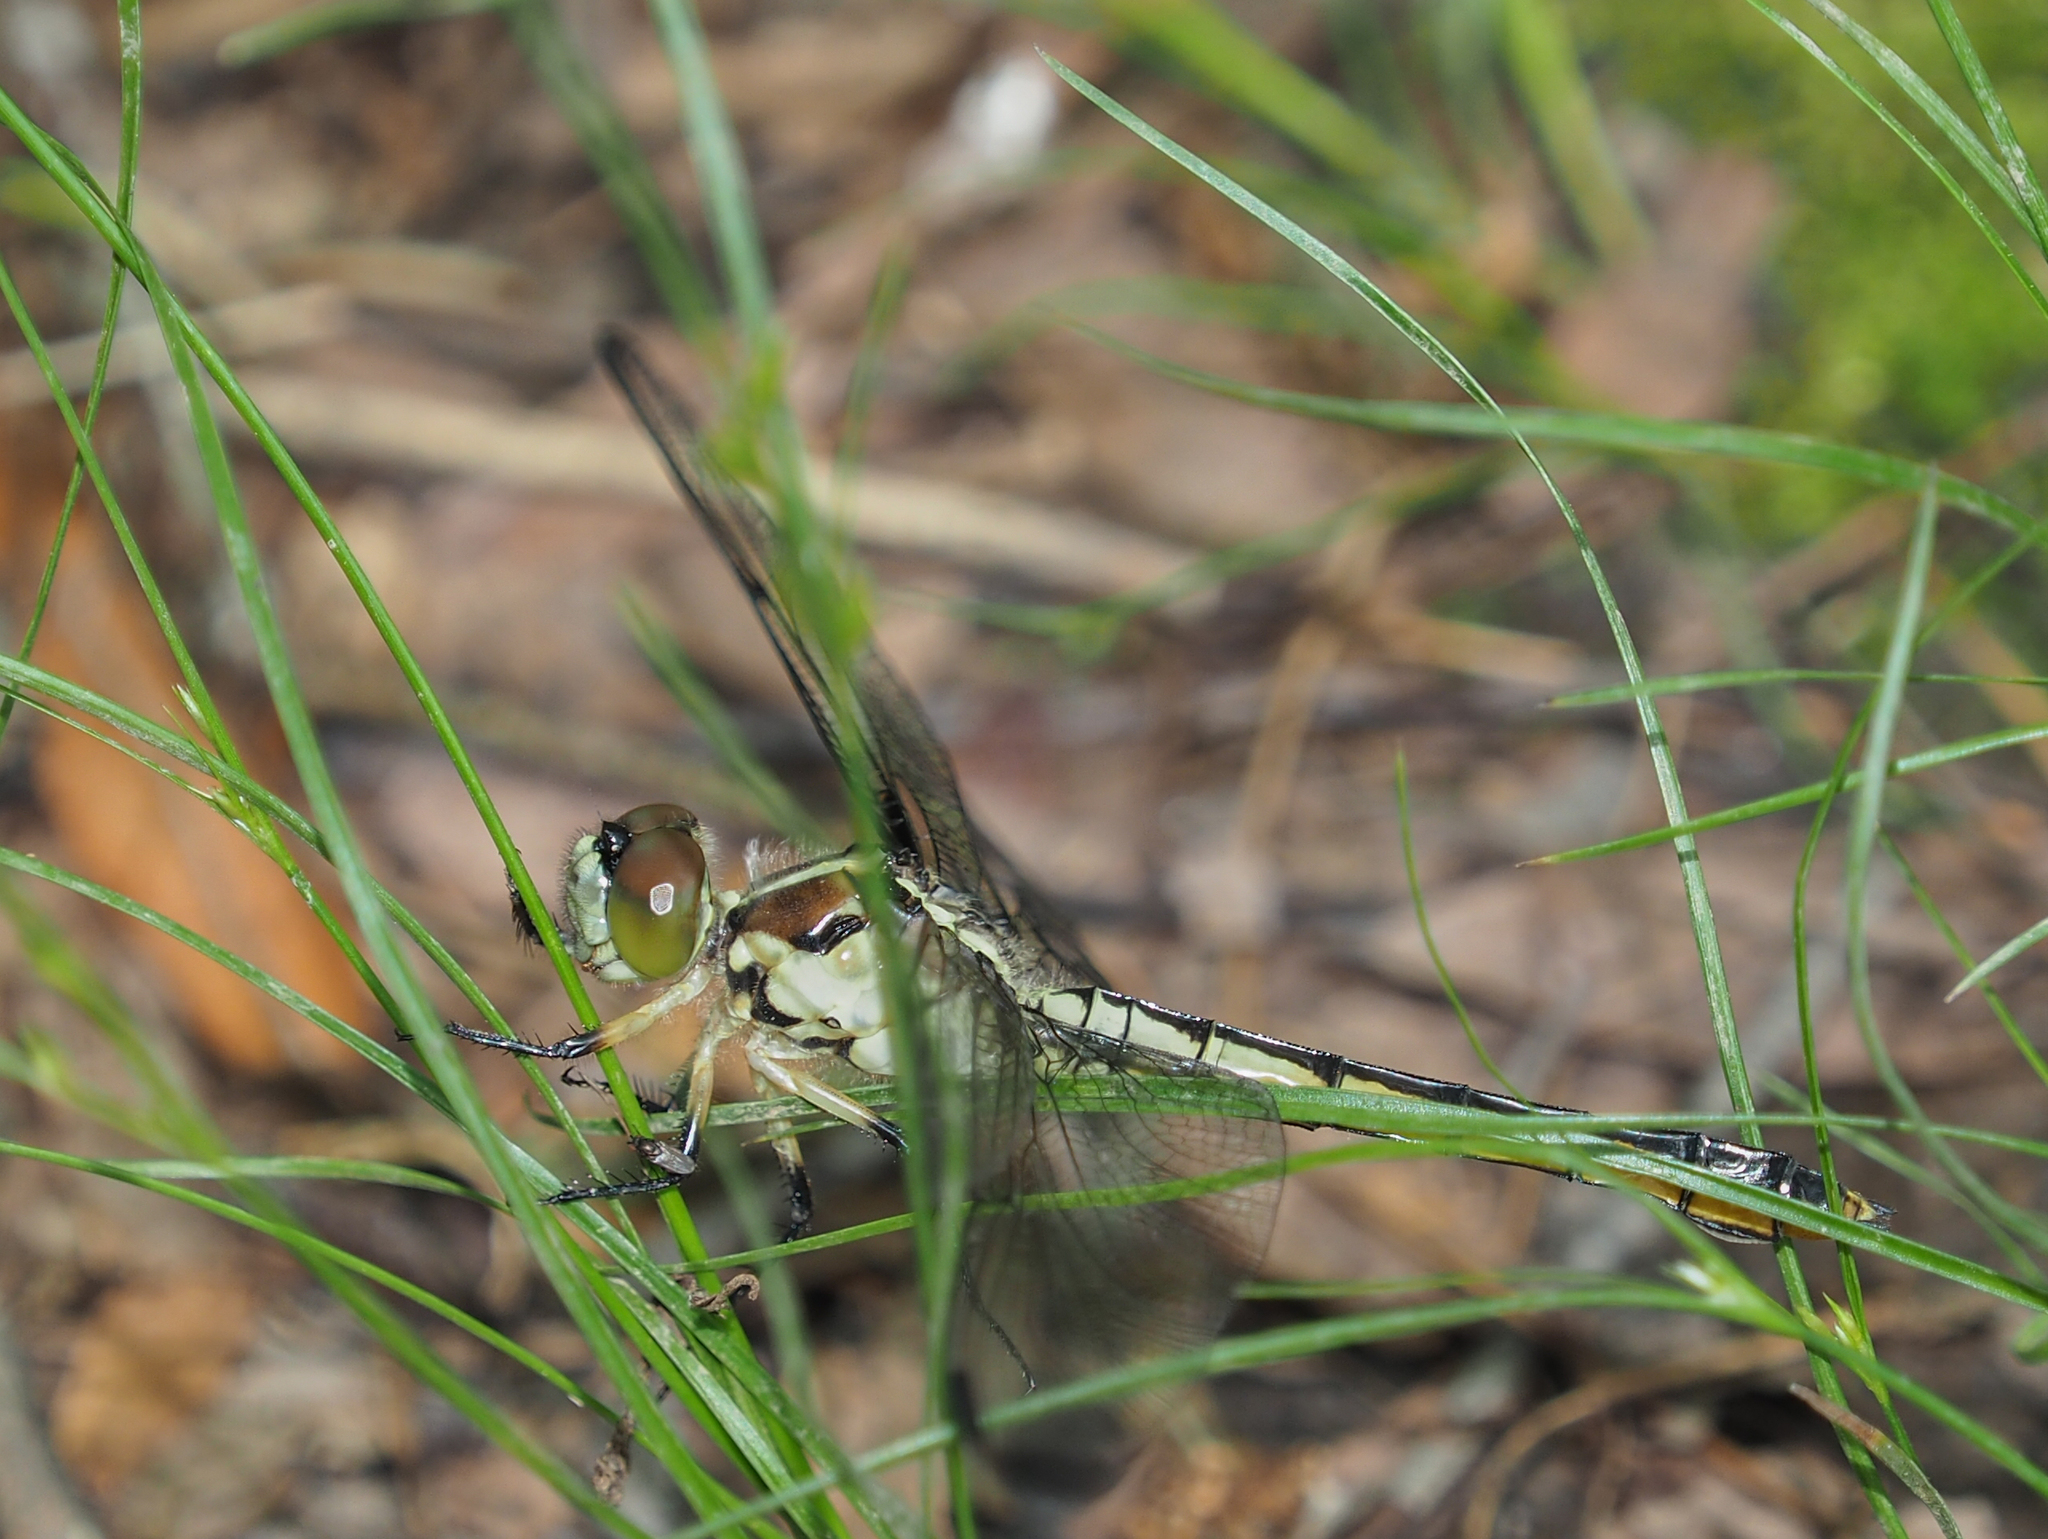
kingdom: Animalia
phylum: Arthropoda
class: Insecta
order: Odonata
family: Libellulidae
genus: Libellula
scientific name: Libellula vibrans
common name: Great blue skimmer
